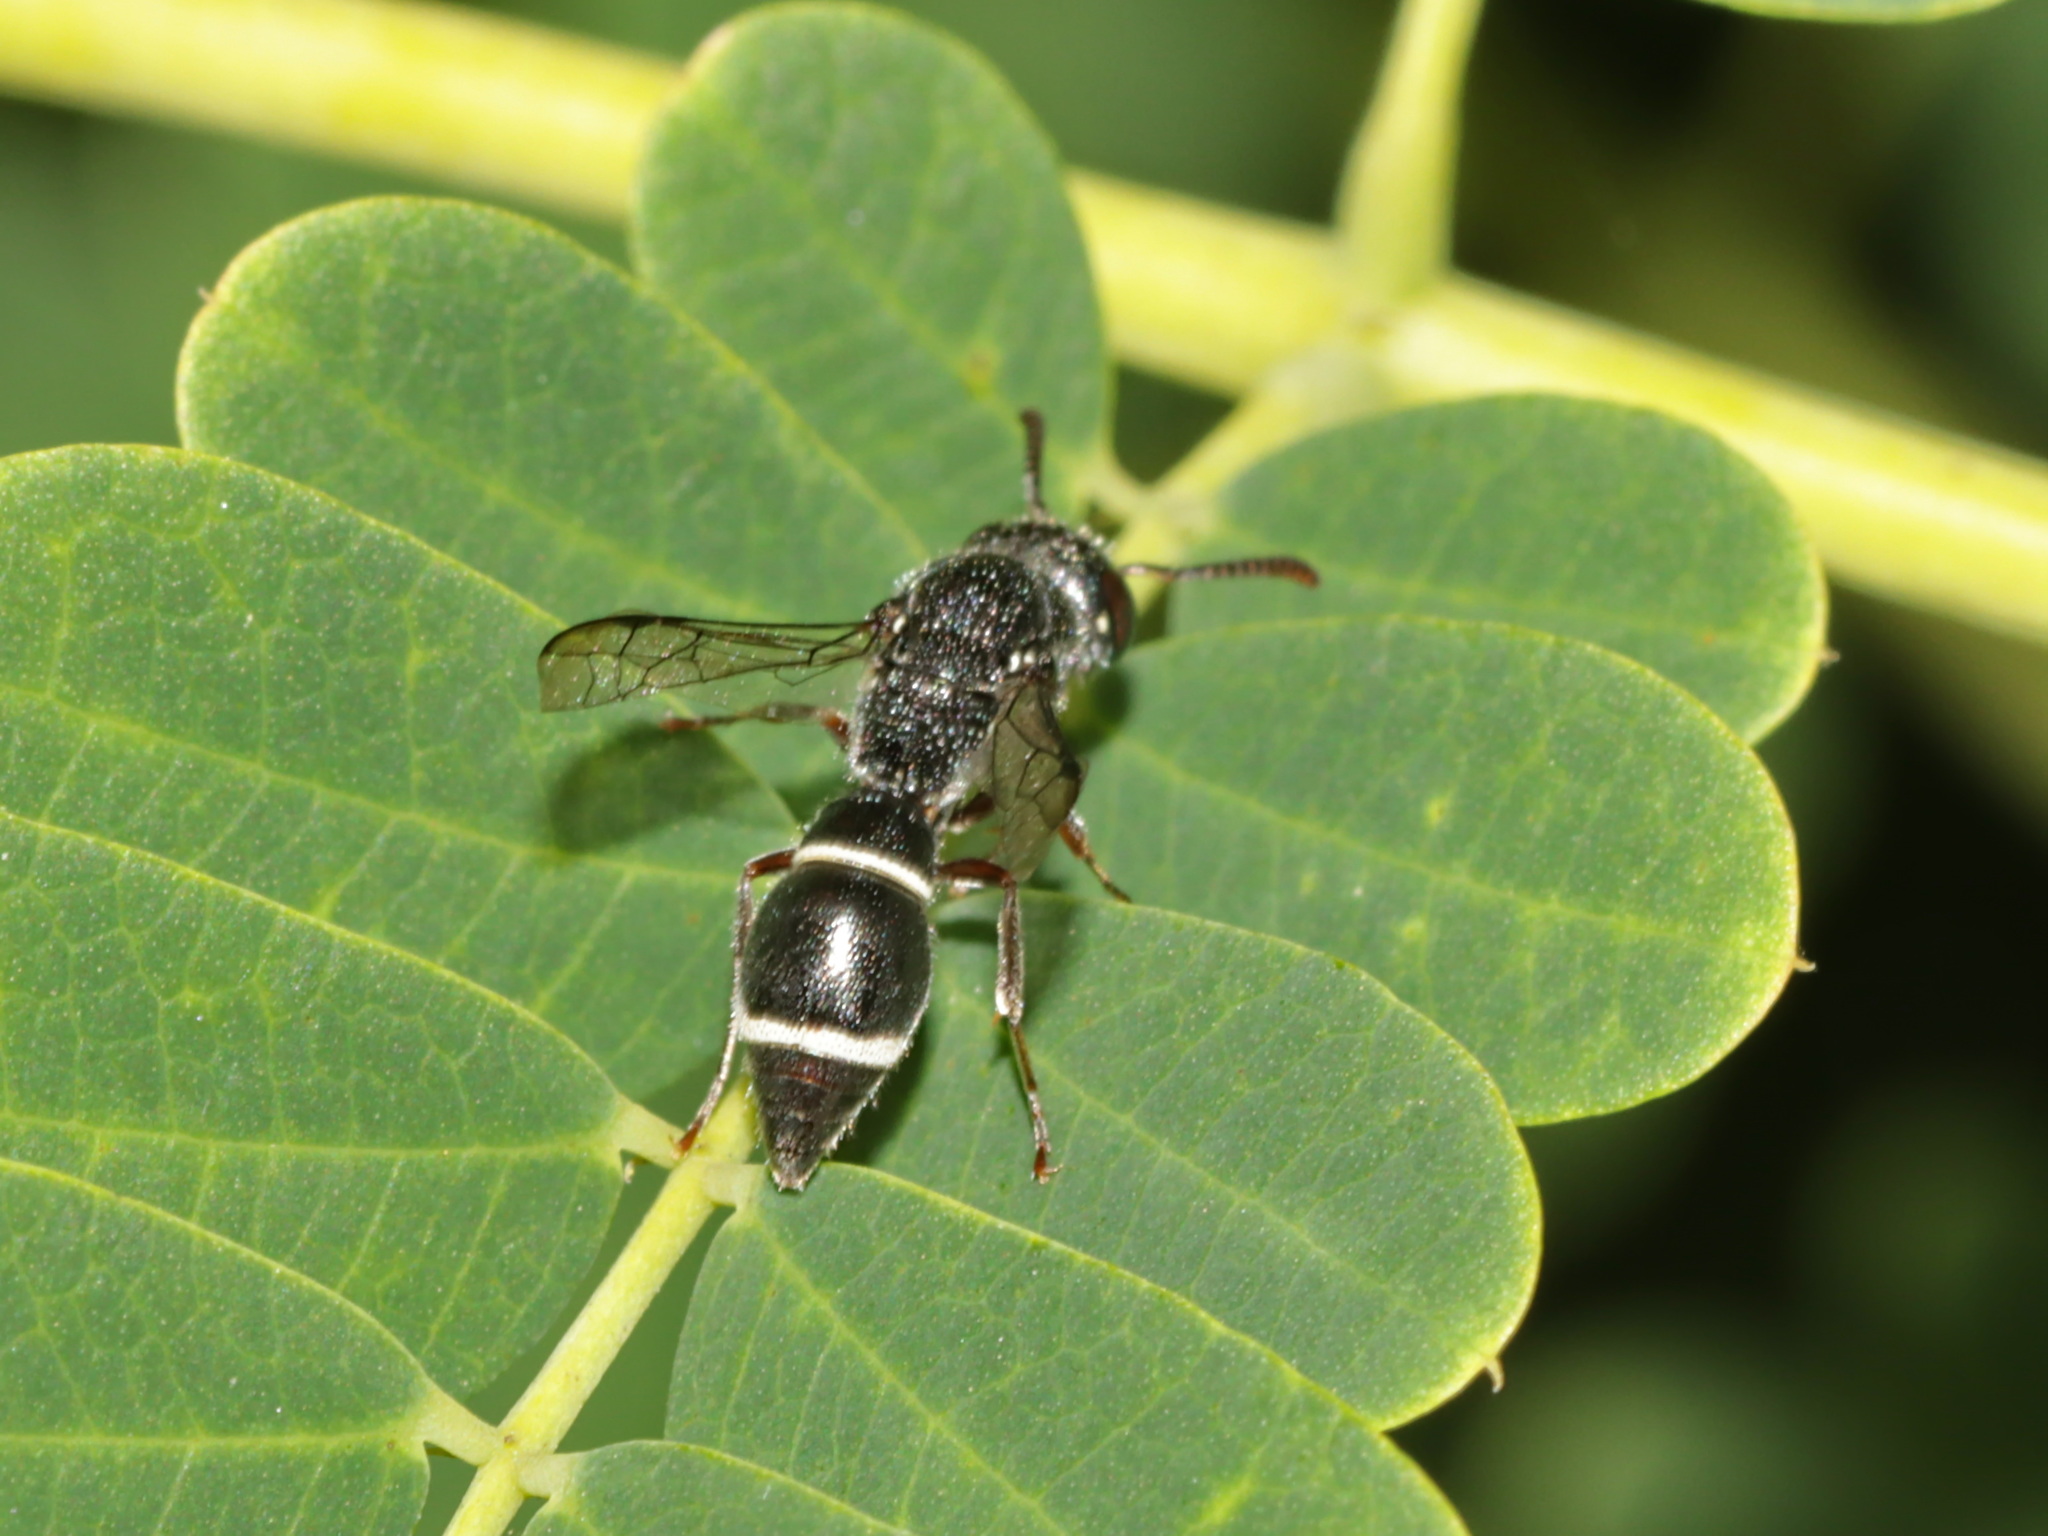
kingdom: Animalia
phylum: Arthropoda
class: Insecta
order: Hymenoptera
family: Eumenidae
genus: Subancistrocerus
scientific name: Subancistrocerus sichelii
